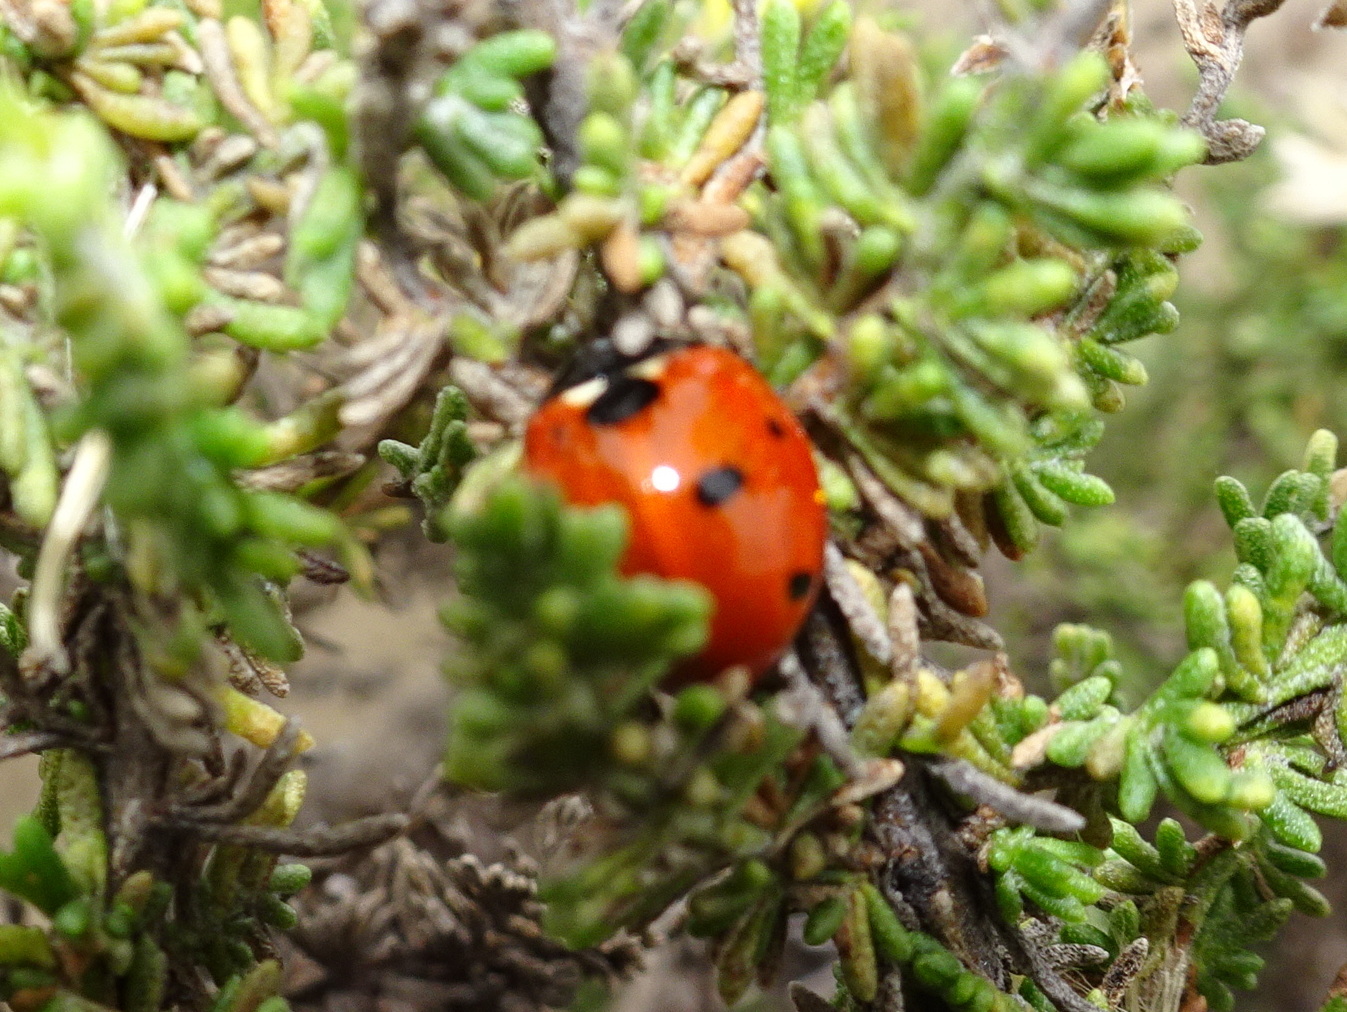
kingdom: Animalia
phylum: Arthropoda
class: Insecta
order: Coleoptera
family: Coccinellidae
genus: Coccinella
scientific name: Coccinella septempunctata
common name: Sevenspotted lady beetle
